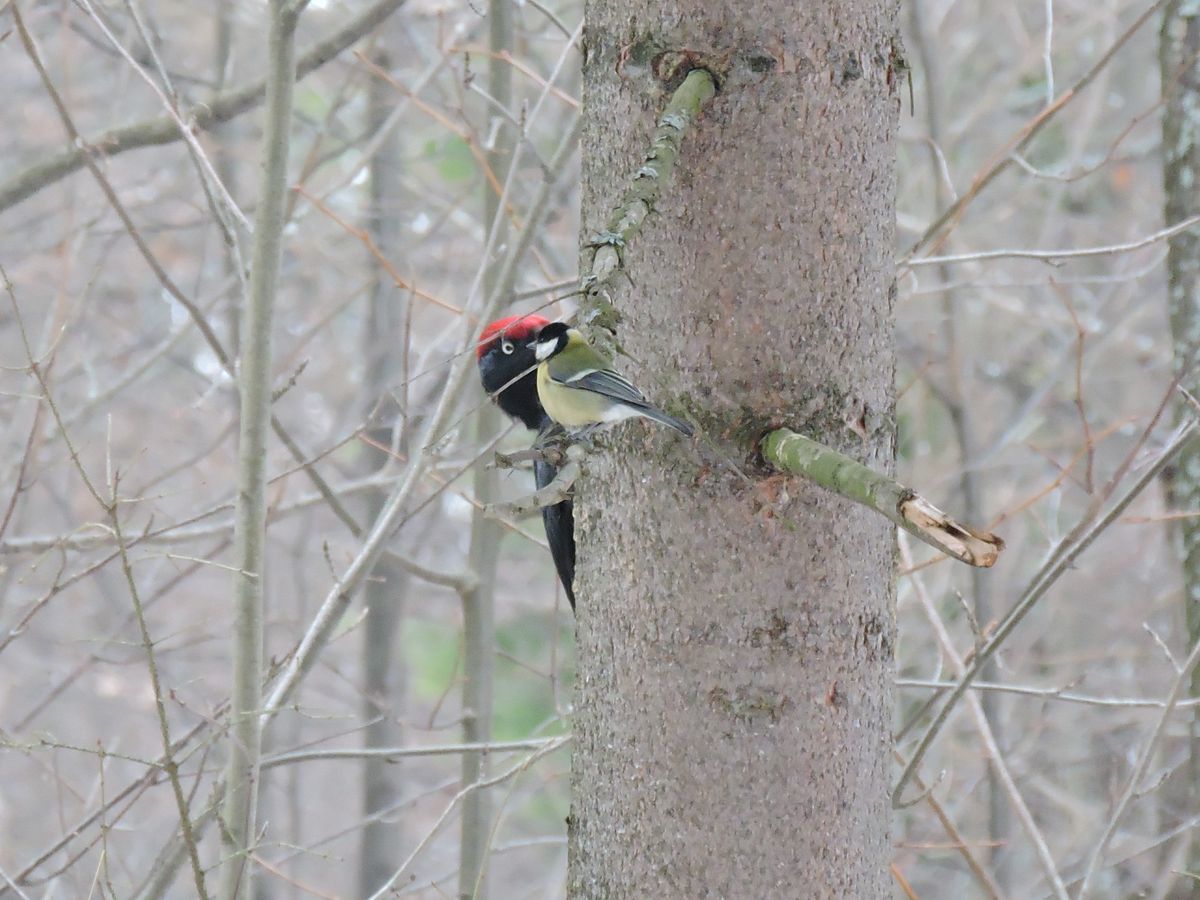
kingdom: Animalia
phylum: Chordata
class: Aves
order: Piciformes
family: Picidae
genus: Dryocopus
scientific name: Dryocopus martius
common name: Black woodpecker
